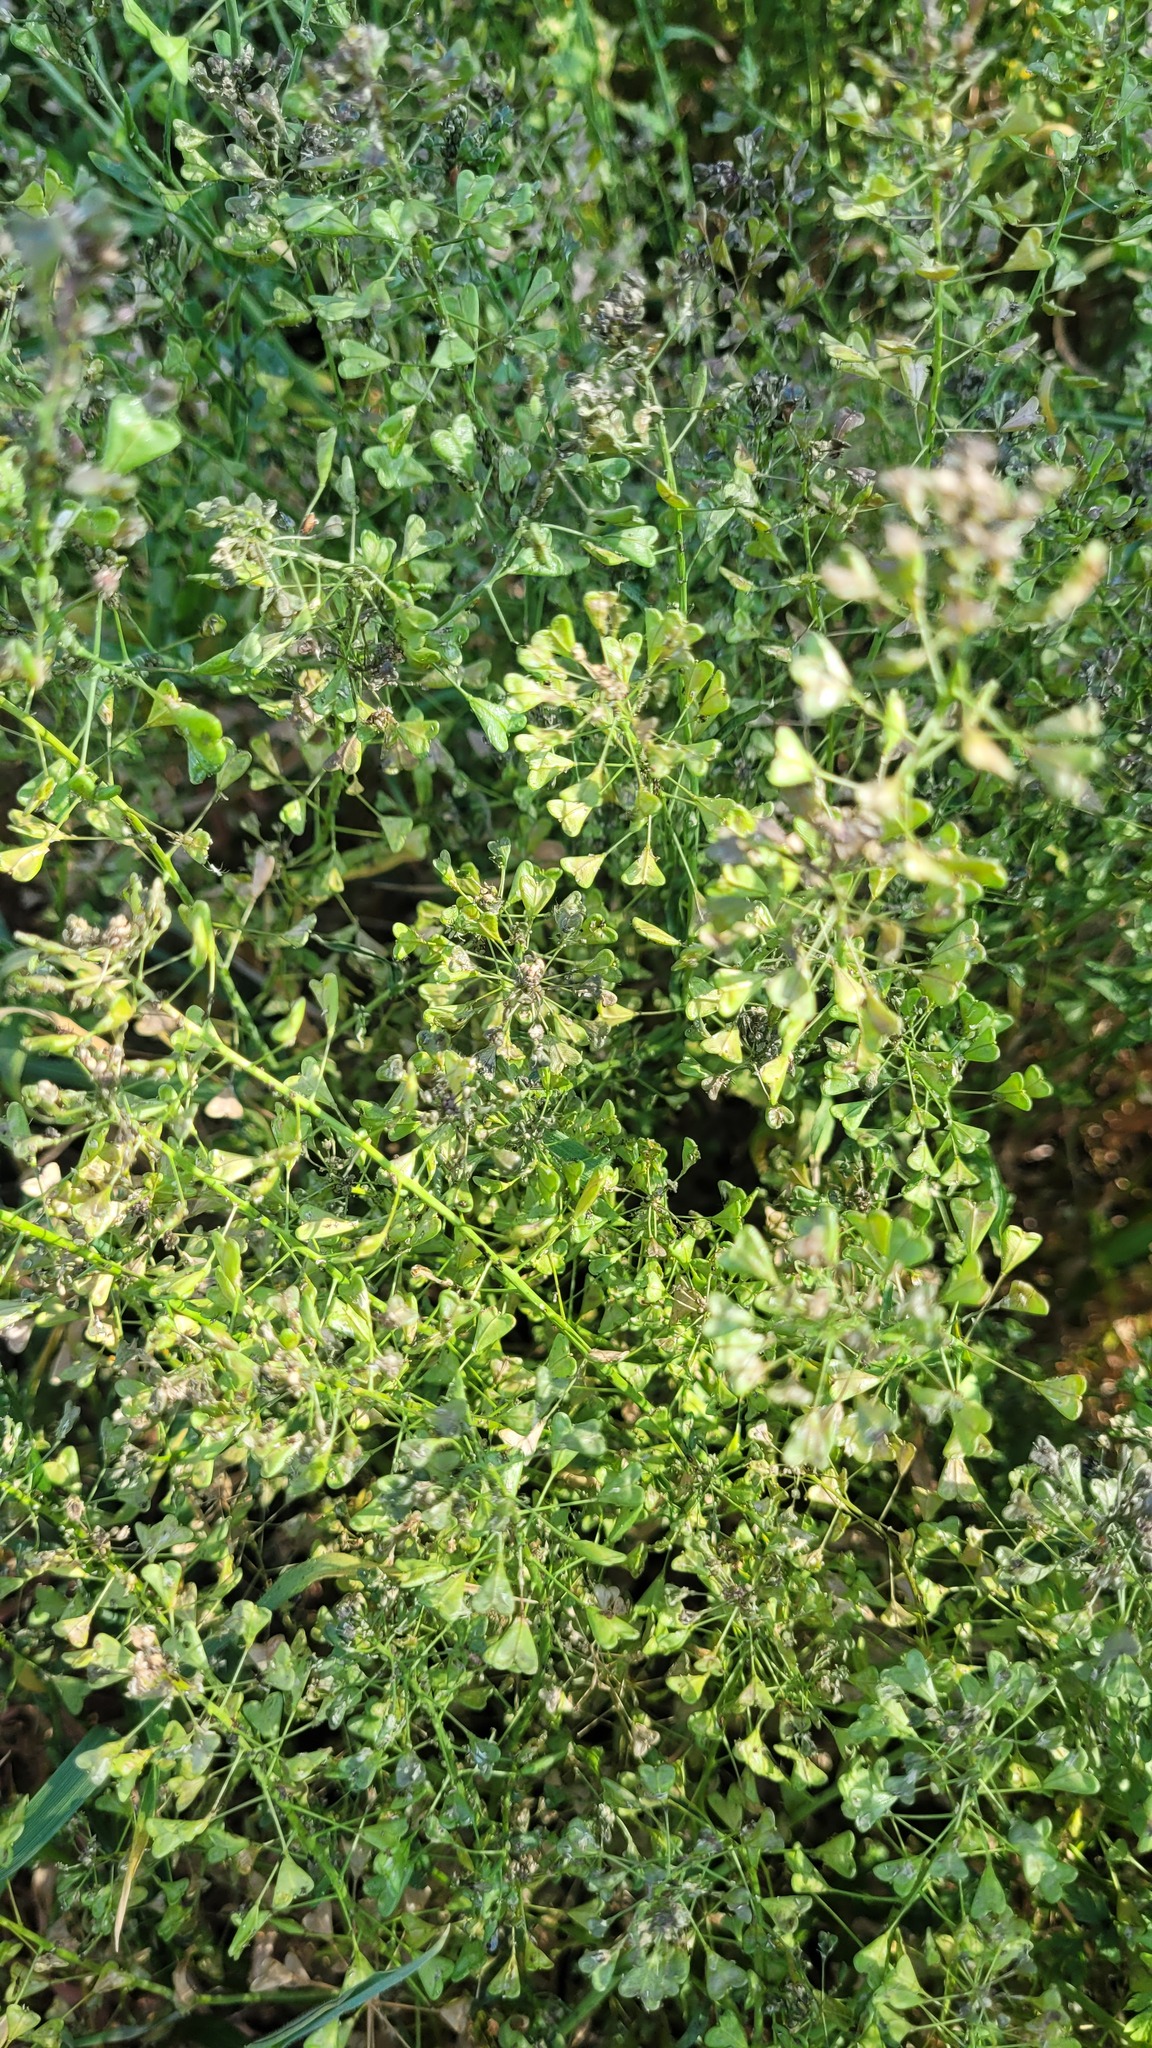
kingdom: Plantae
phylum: Tracheophyta
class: Magnoliopsida
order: Brassicales
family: Brassicaceae
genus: Capsella
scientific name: Capsella bursa-pastoris
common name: Shepherd's purse
